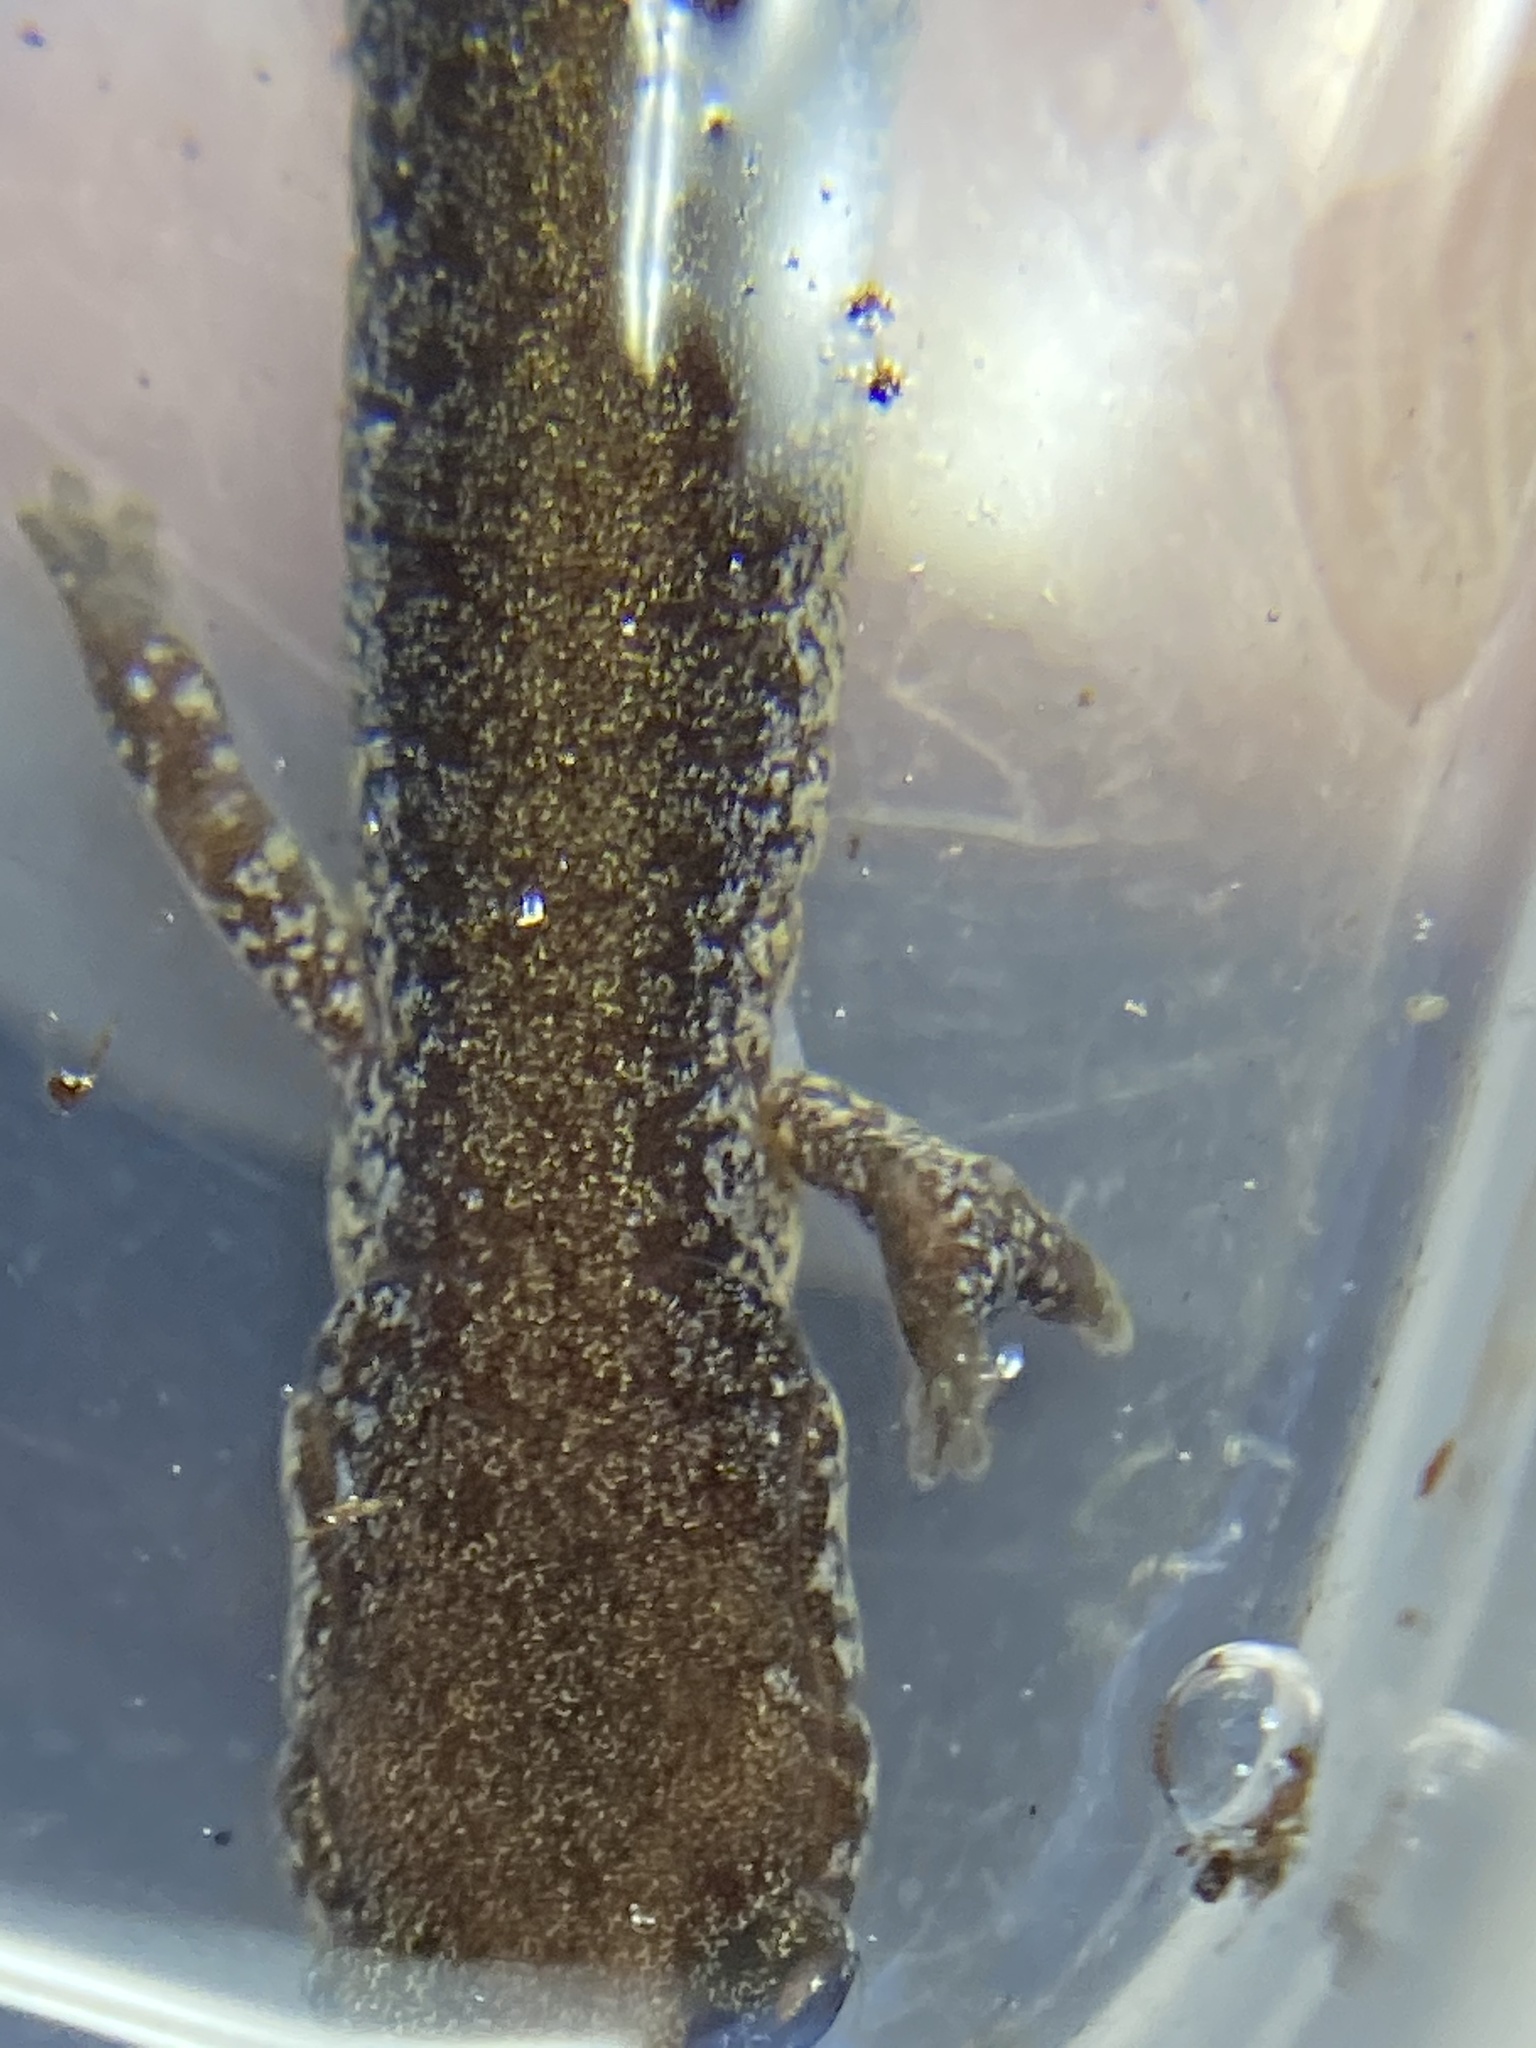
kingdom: Animalia
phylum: Chordata
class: Amphibia
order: Caudata
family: Plethodontidae
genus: Plethodon
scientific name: Plethodon cinereus
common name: Redback salamander
